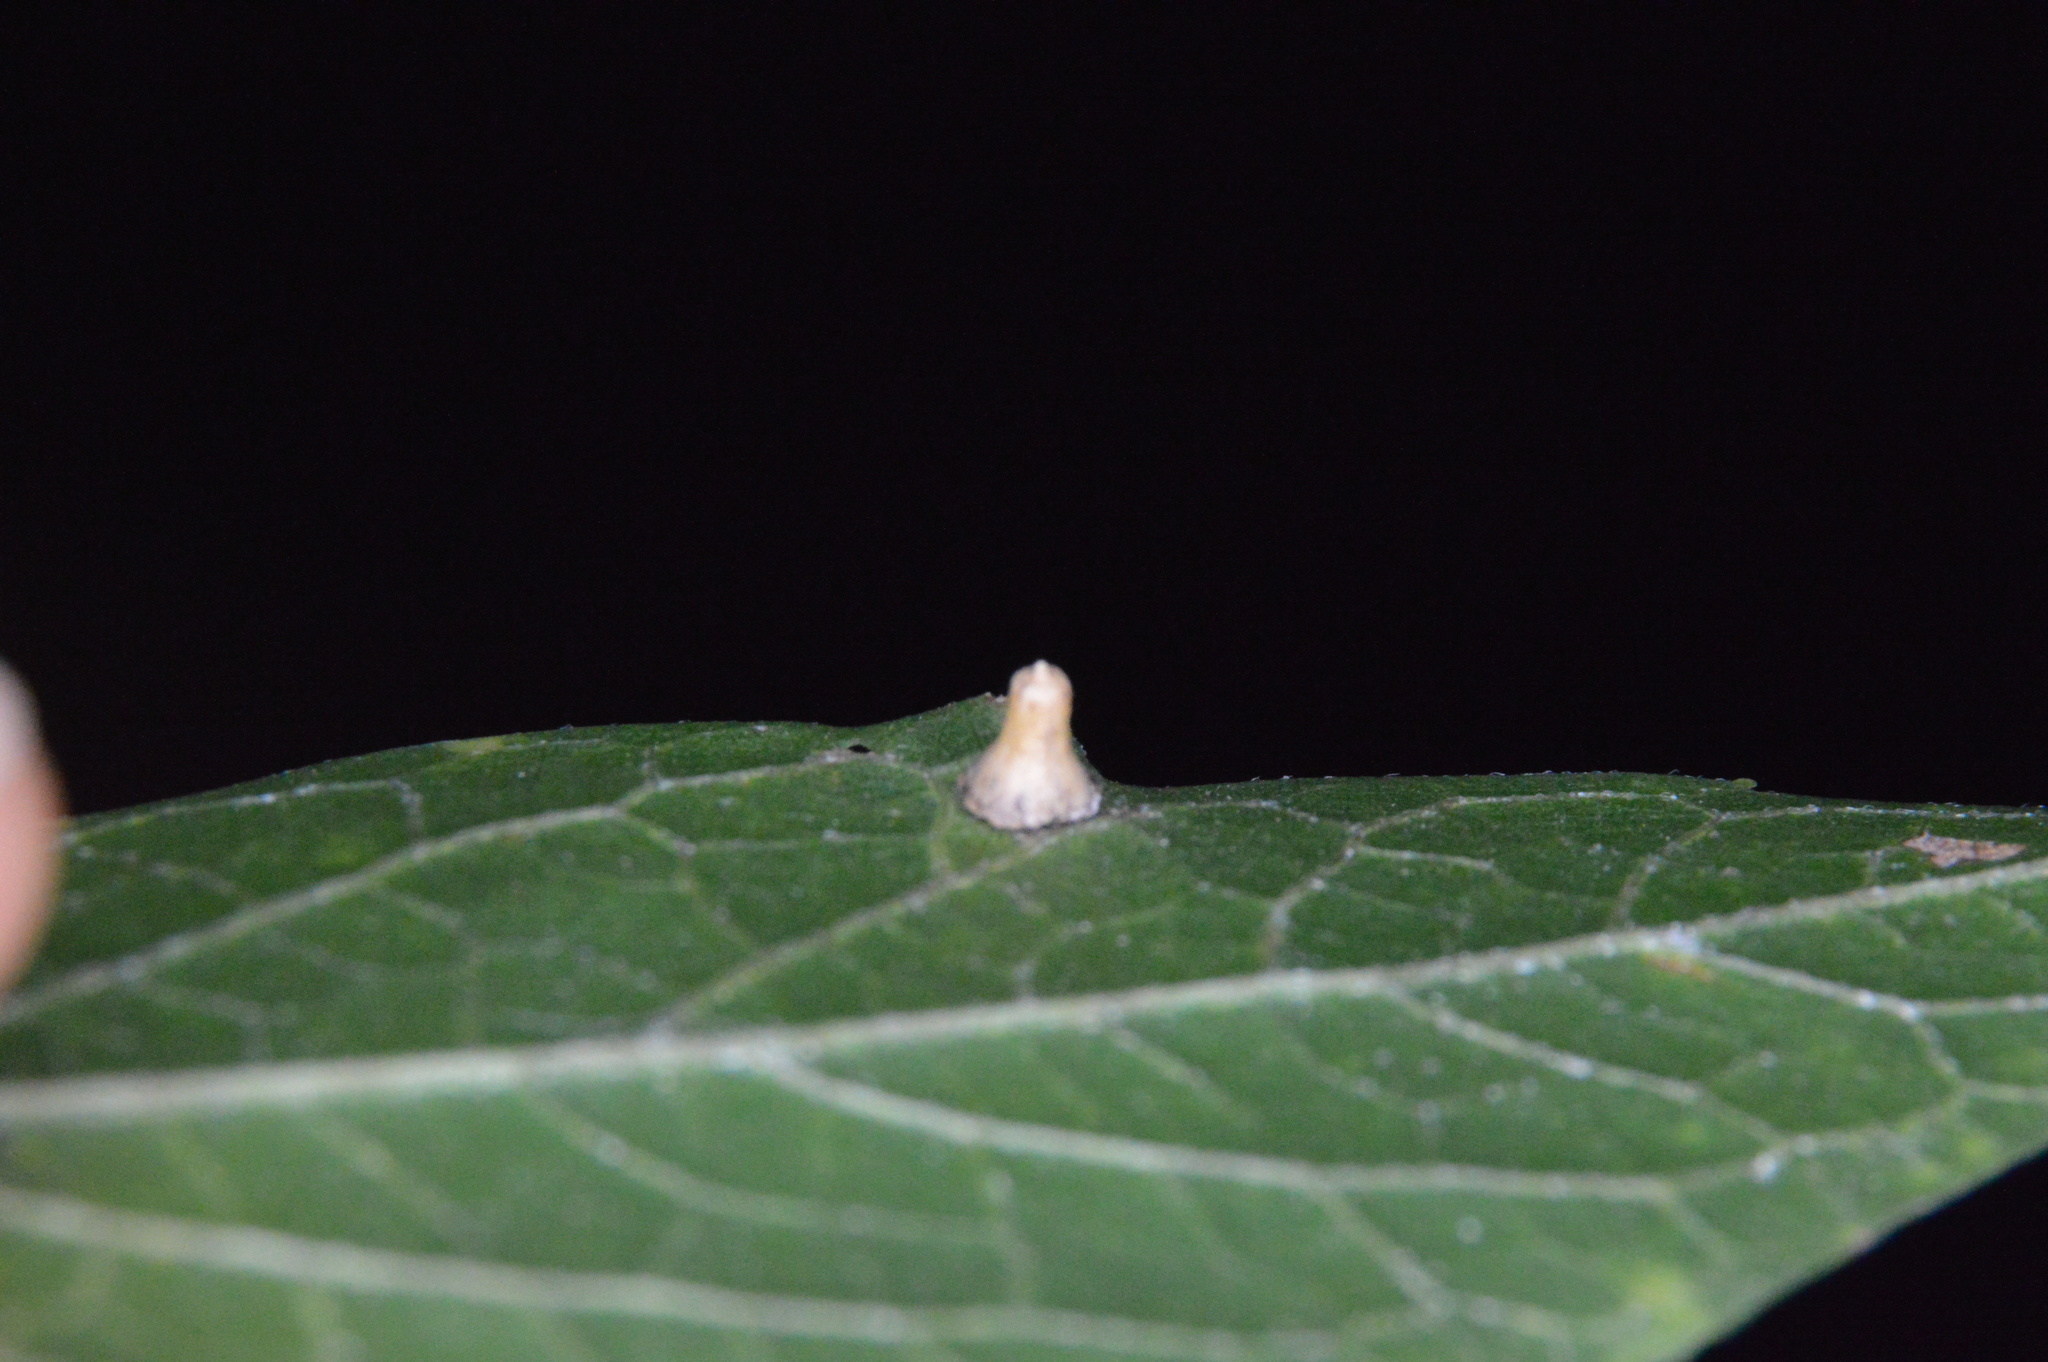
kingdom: Animalia
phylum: Arthropoda
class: Insecta
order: Diptera
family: Cecidomyiidae
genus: Celticecis
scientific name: Celticecis aciculata
